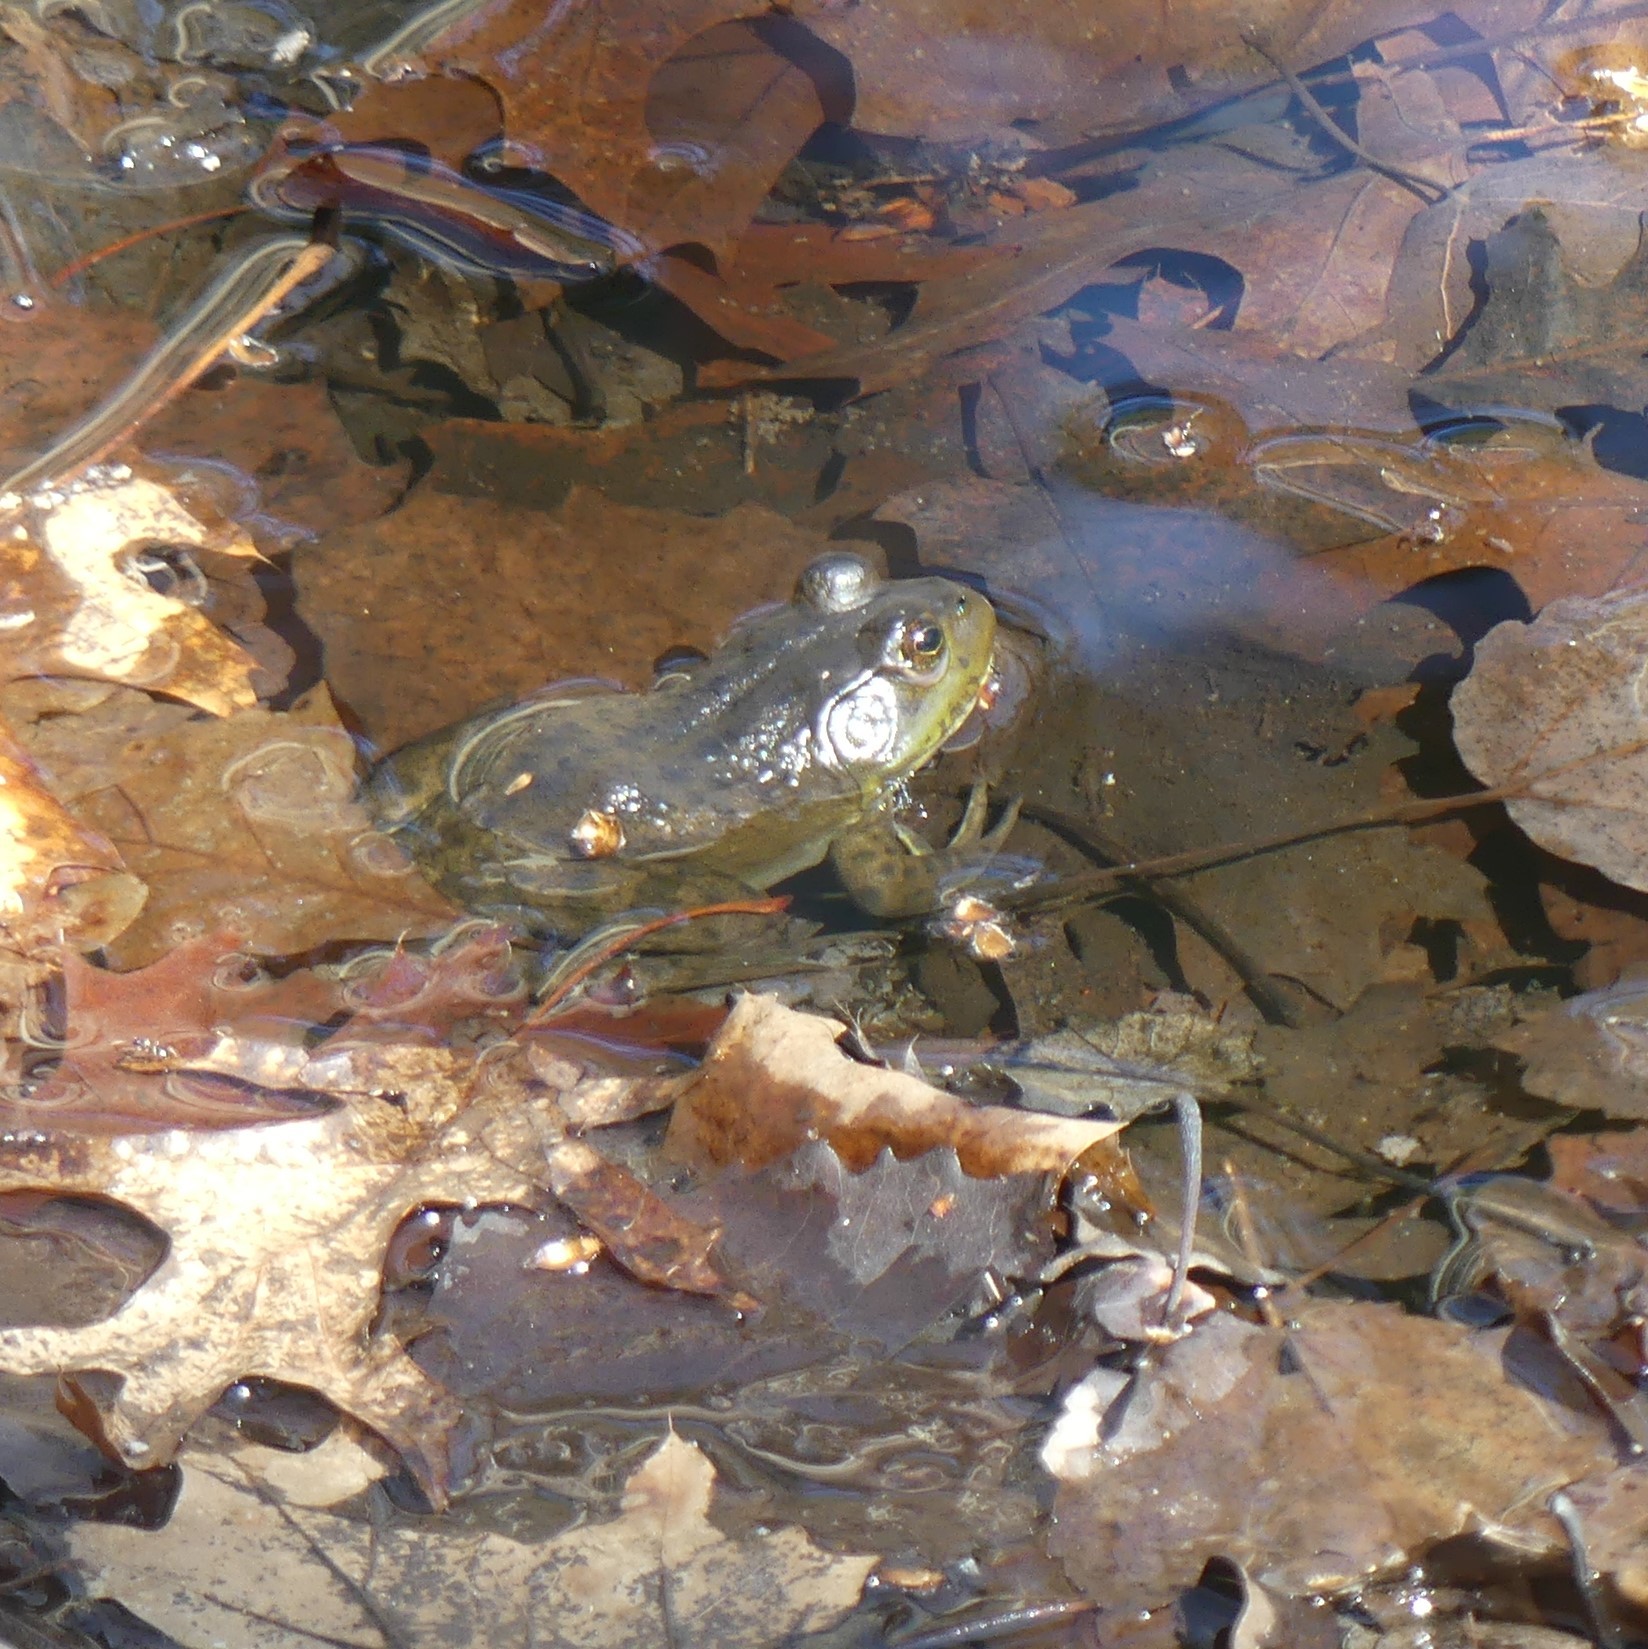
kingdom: Animalia
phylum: Chordata
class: Amphibia
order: Anura
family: Ranidae
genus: Lithobates
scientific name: Lithobates catesbeianus
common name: American bullfrog
